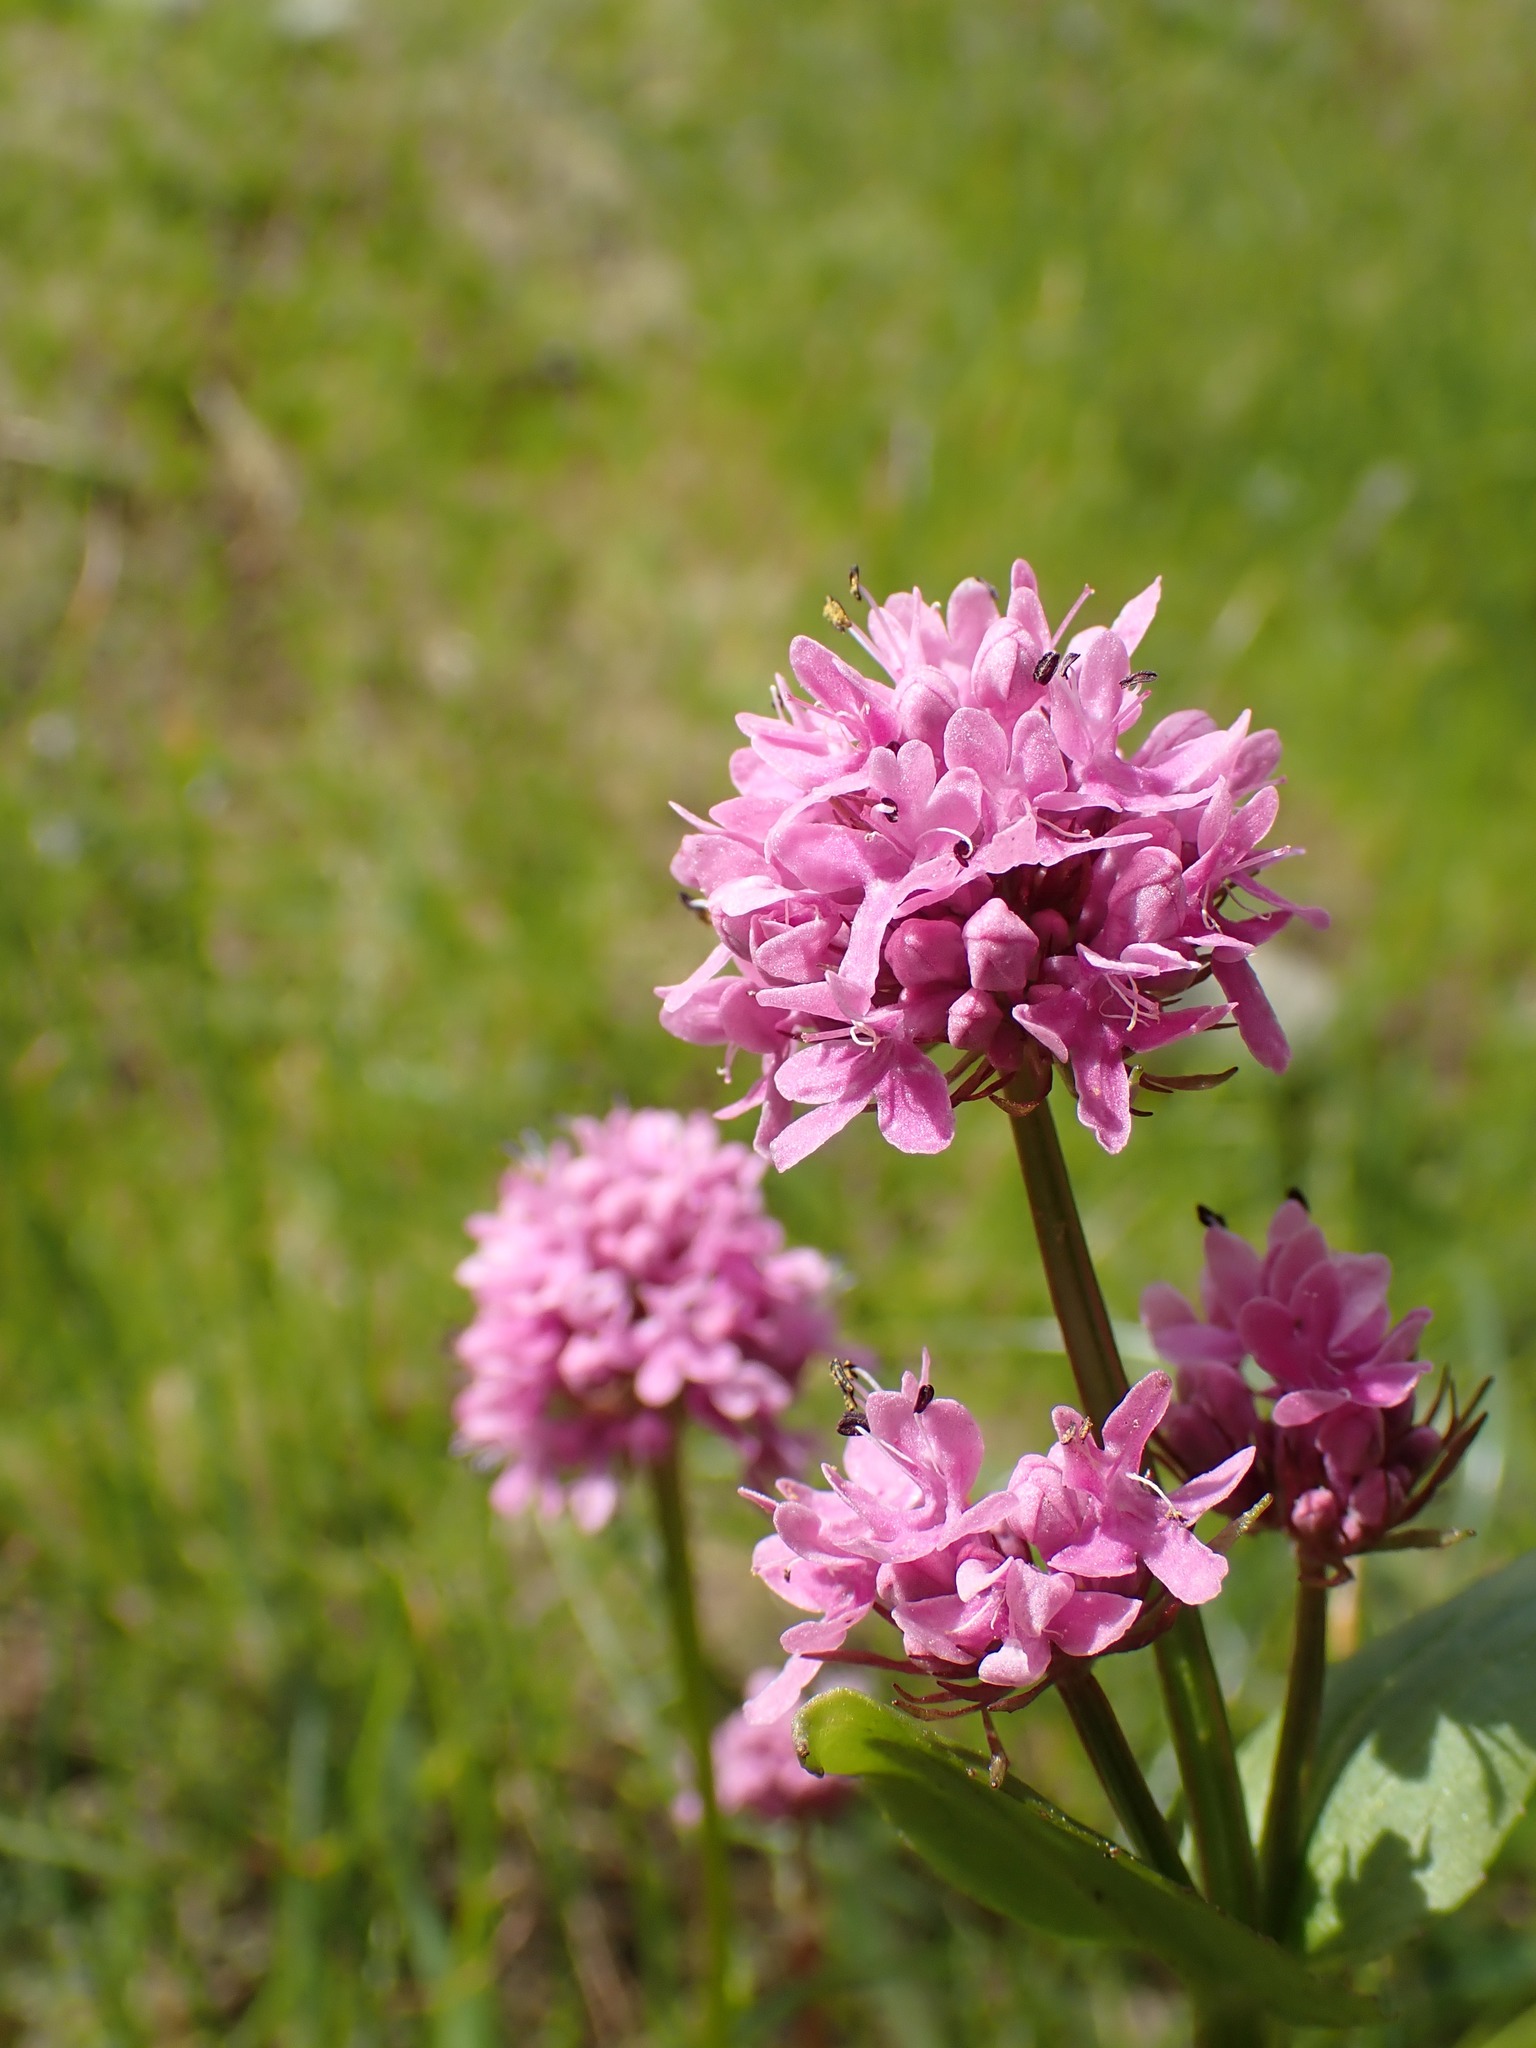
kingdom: Plantae
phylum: Tracheophyta
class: Magnoliopsida
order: Dipsacales
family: Caprifoliaceae
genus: Plectritis
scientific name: Plectritis congesta
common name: Pink plectritis
